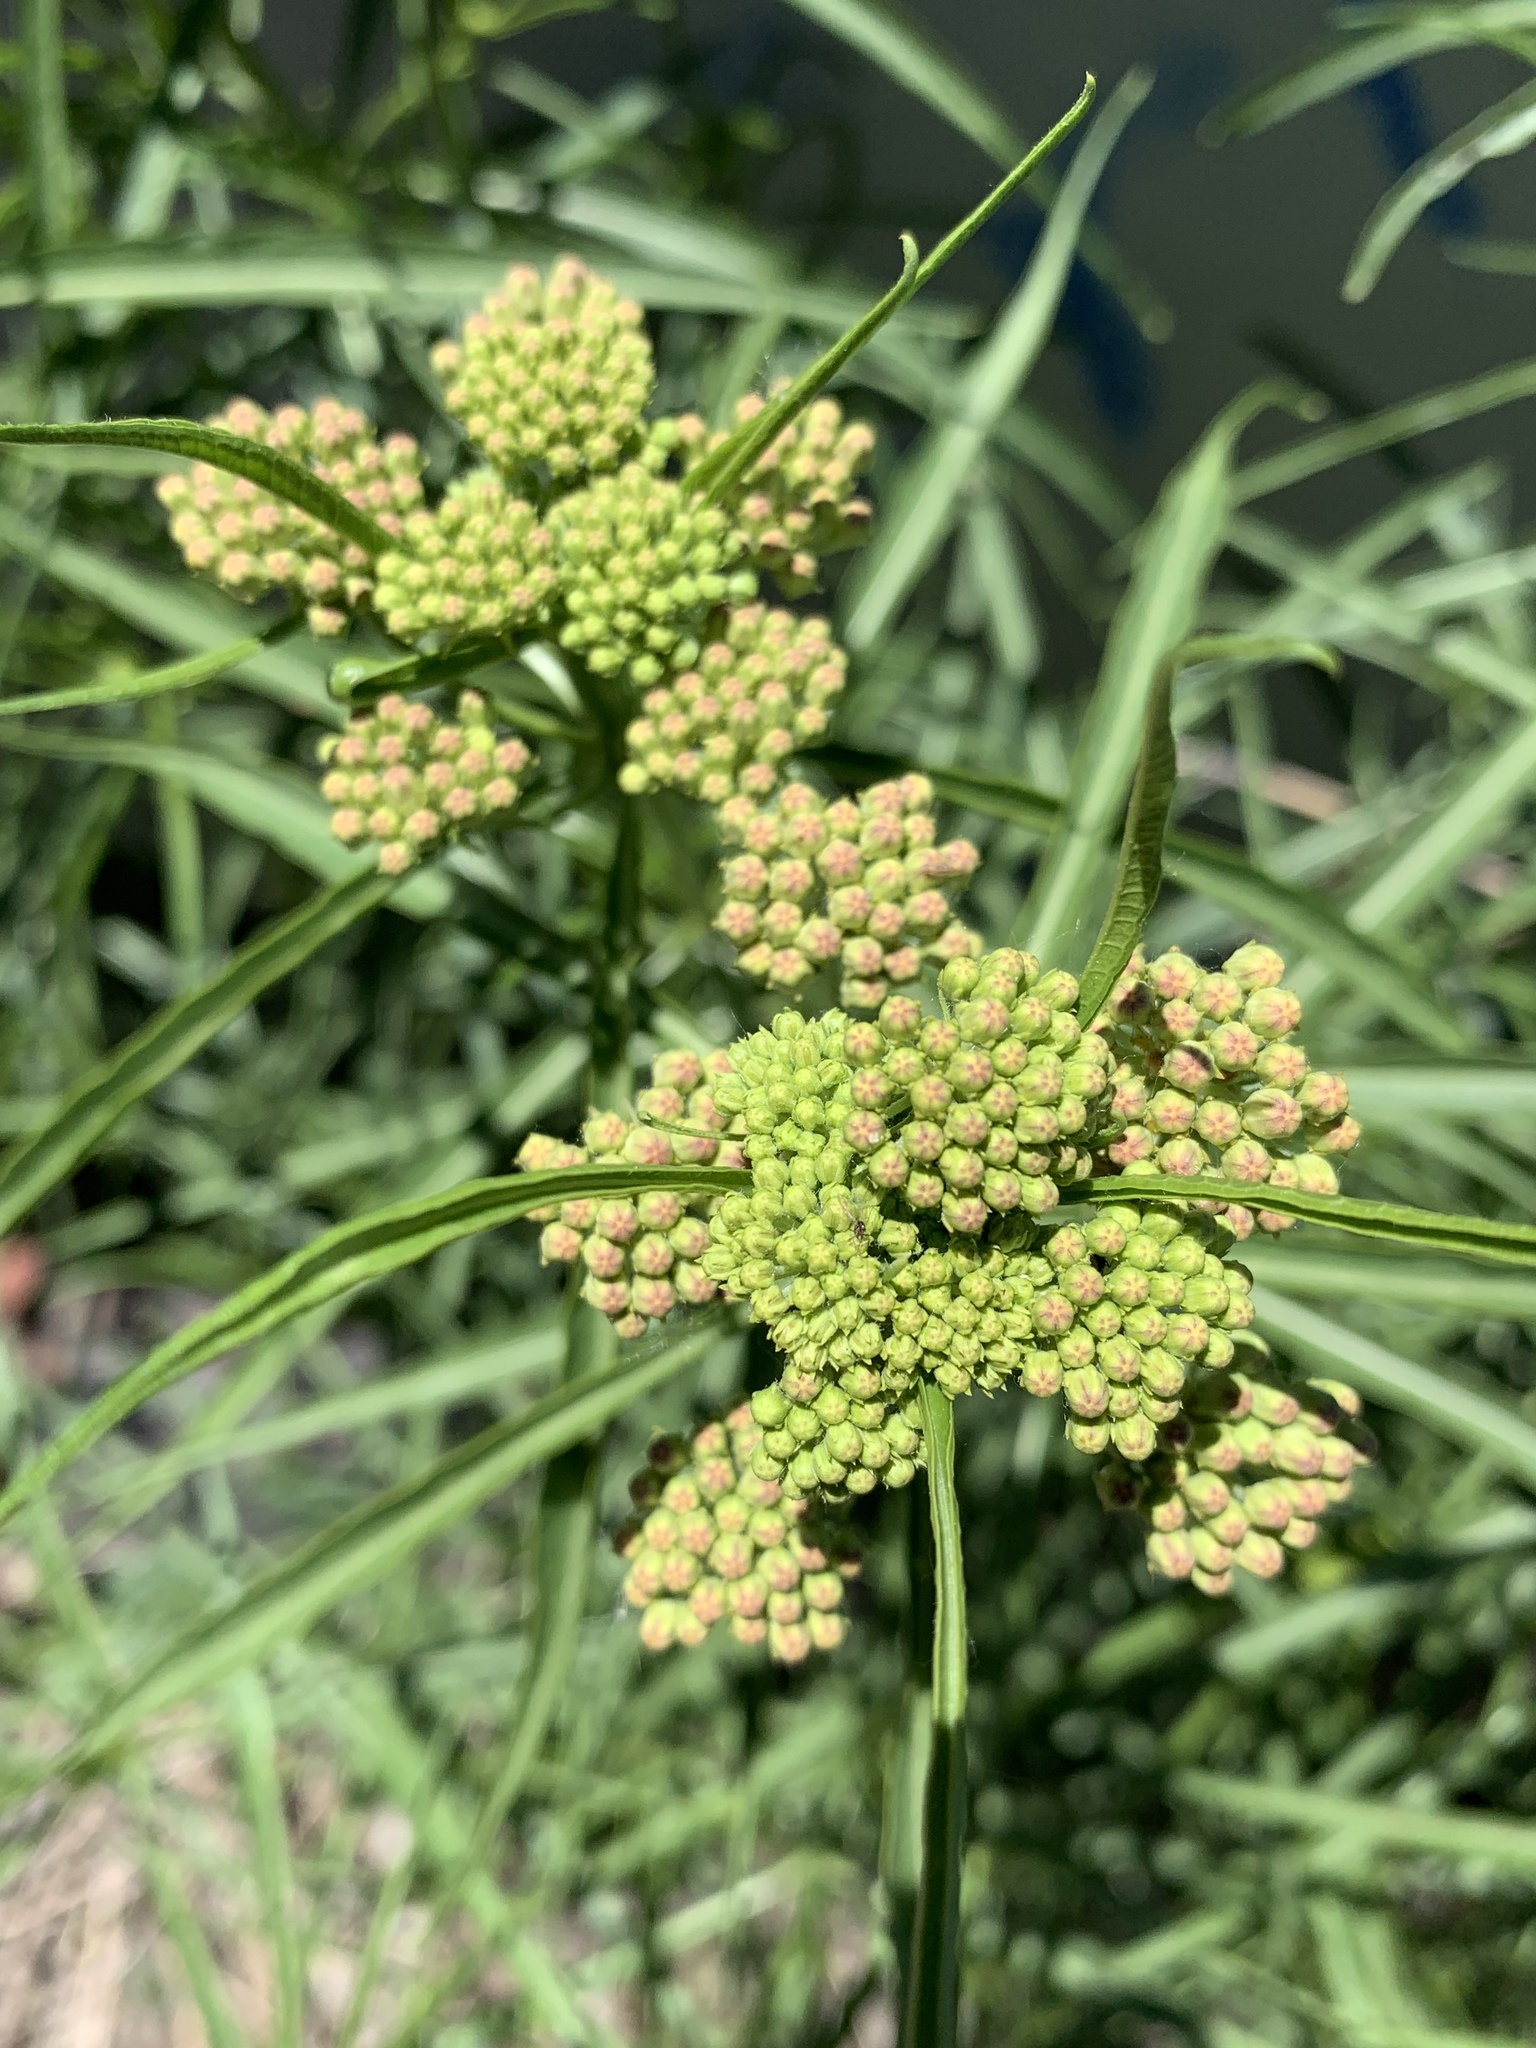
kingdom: Plantae
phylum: Tracheophyta
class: Magnoliopsida
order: Gentianales
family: Apocynaceae
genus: Asclepias
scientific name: Asclepias fascicularis
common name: Mexican milkweed
